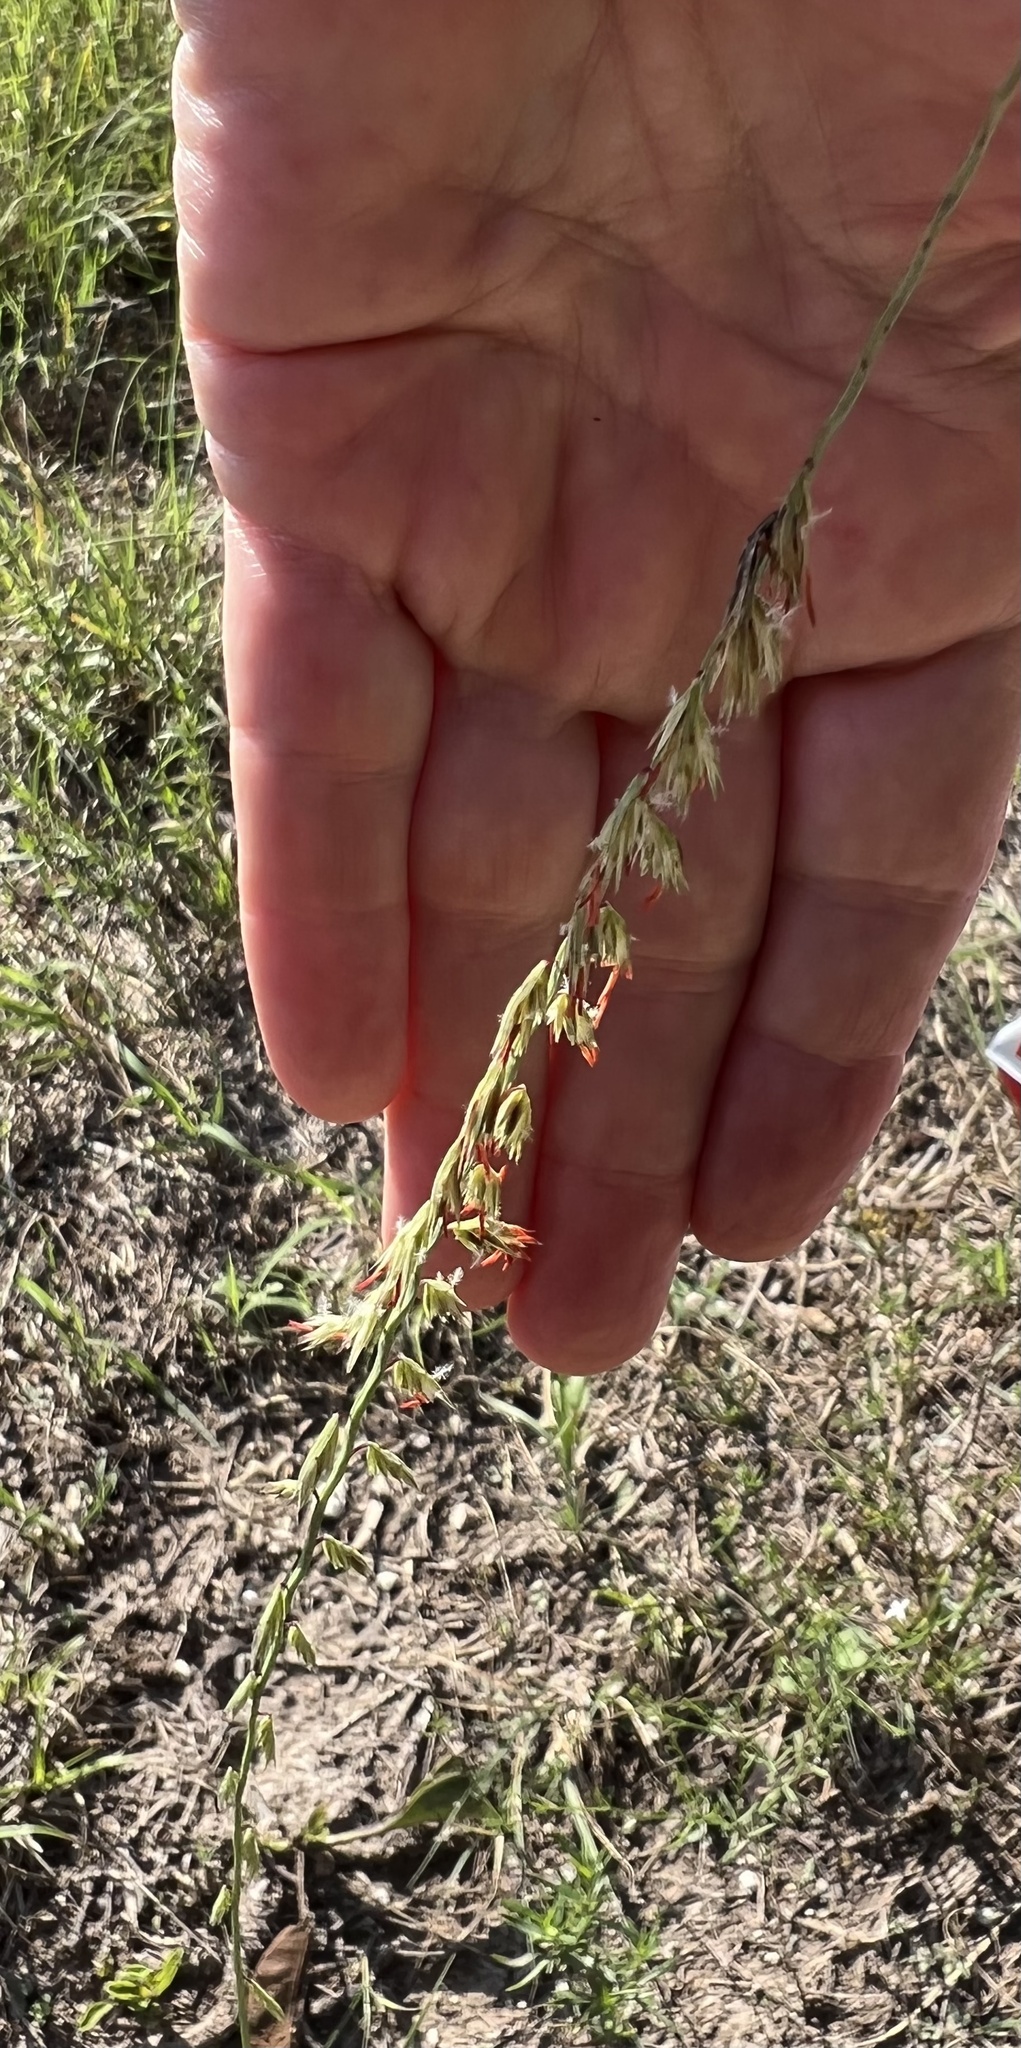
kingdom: Plantae
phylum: Tracheophyta
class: Liliopsida
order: Poales
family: Poaceae
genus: Bouteloua
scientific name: Bouteloua curtipendula
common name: Side-oats grama
